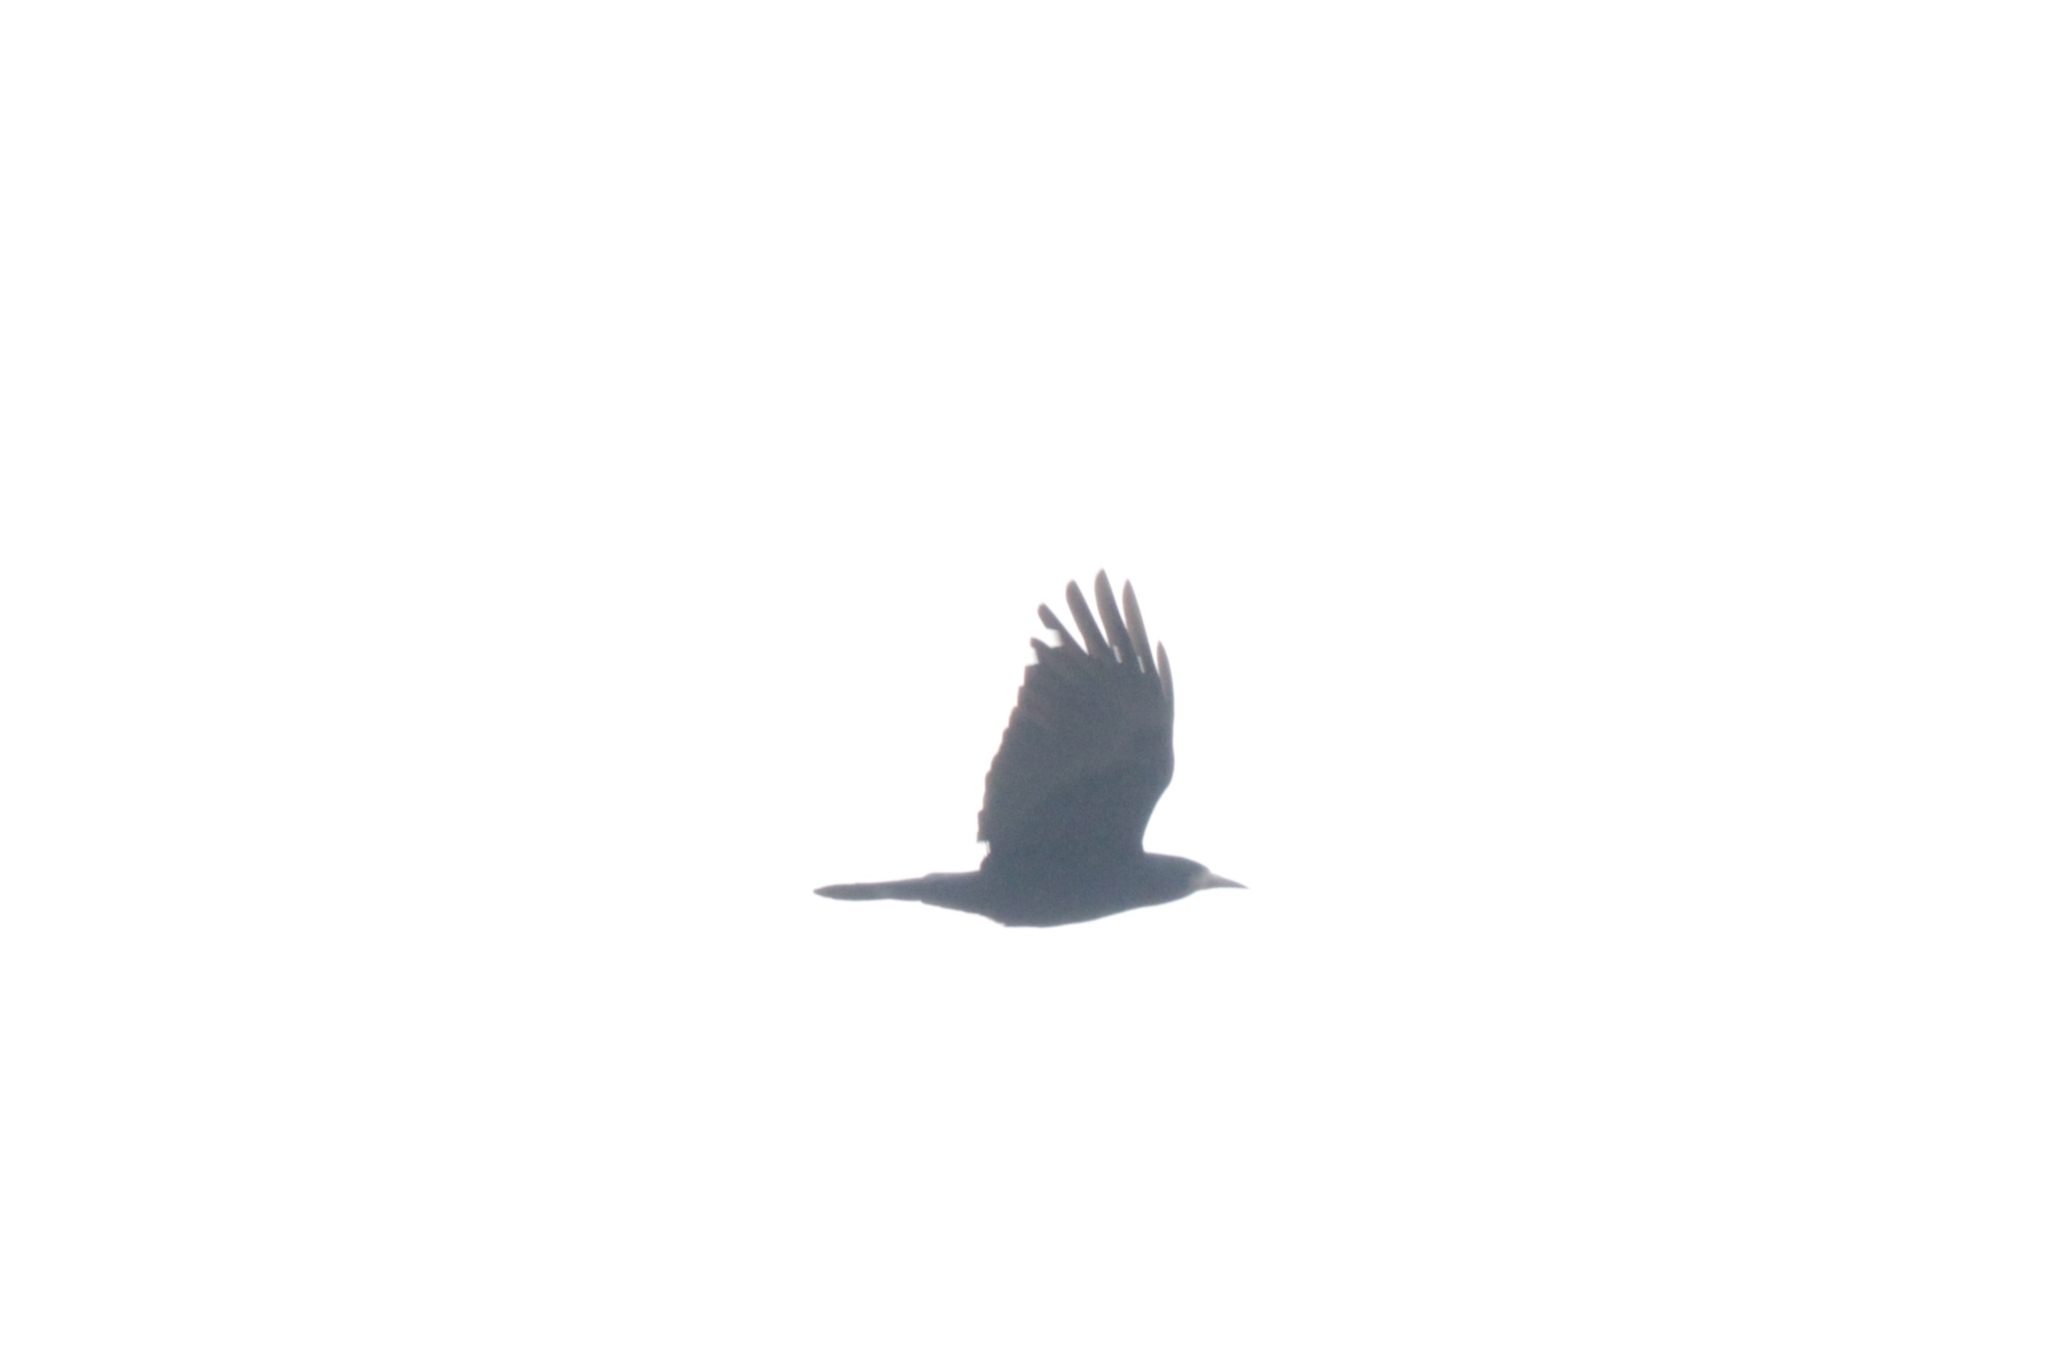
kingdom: Animalia
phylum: Chordata
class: Aves
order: Passeriformes
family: Corvidae
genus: Corvus
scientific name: Corvus frugilegus
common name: Rook
